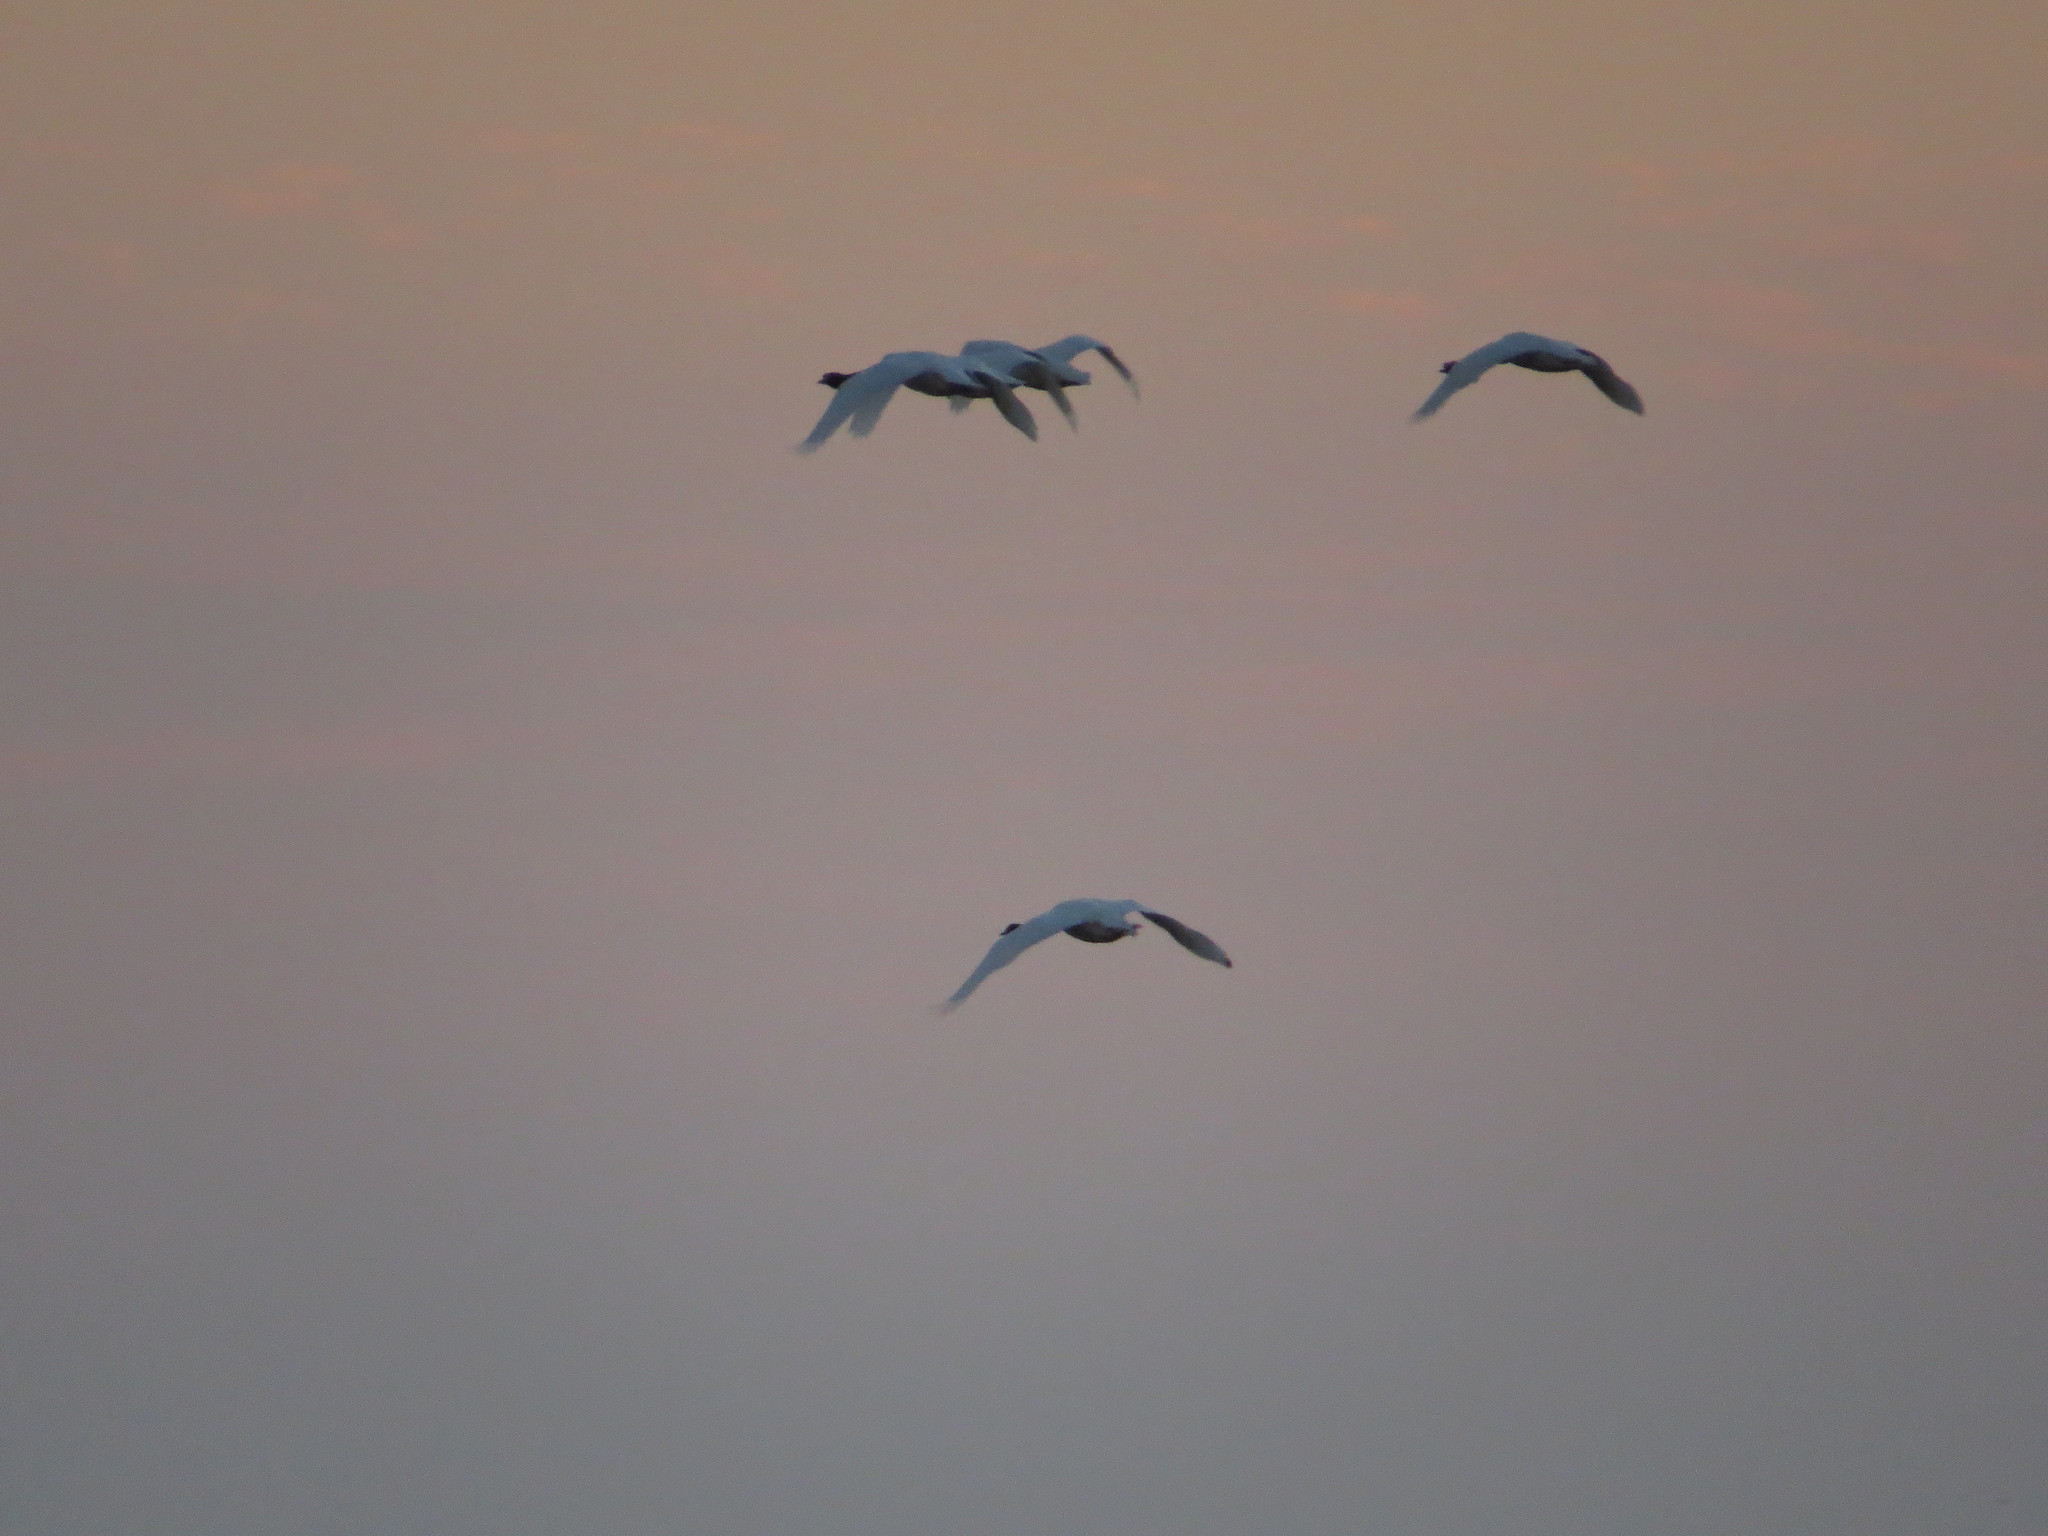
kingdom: Animalia
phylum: Chordata
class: Aves
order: Anseriformes
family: Anatidae
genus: Cygnus
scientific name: Cygnus melancoryphus
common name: Black-necked swan
